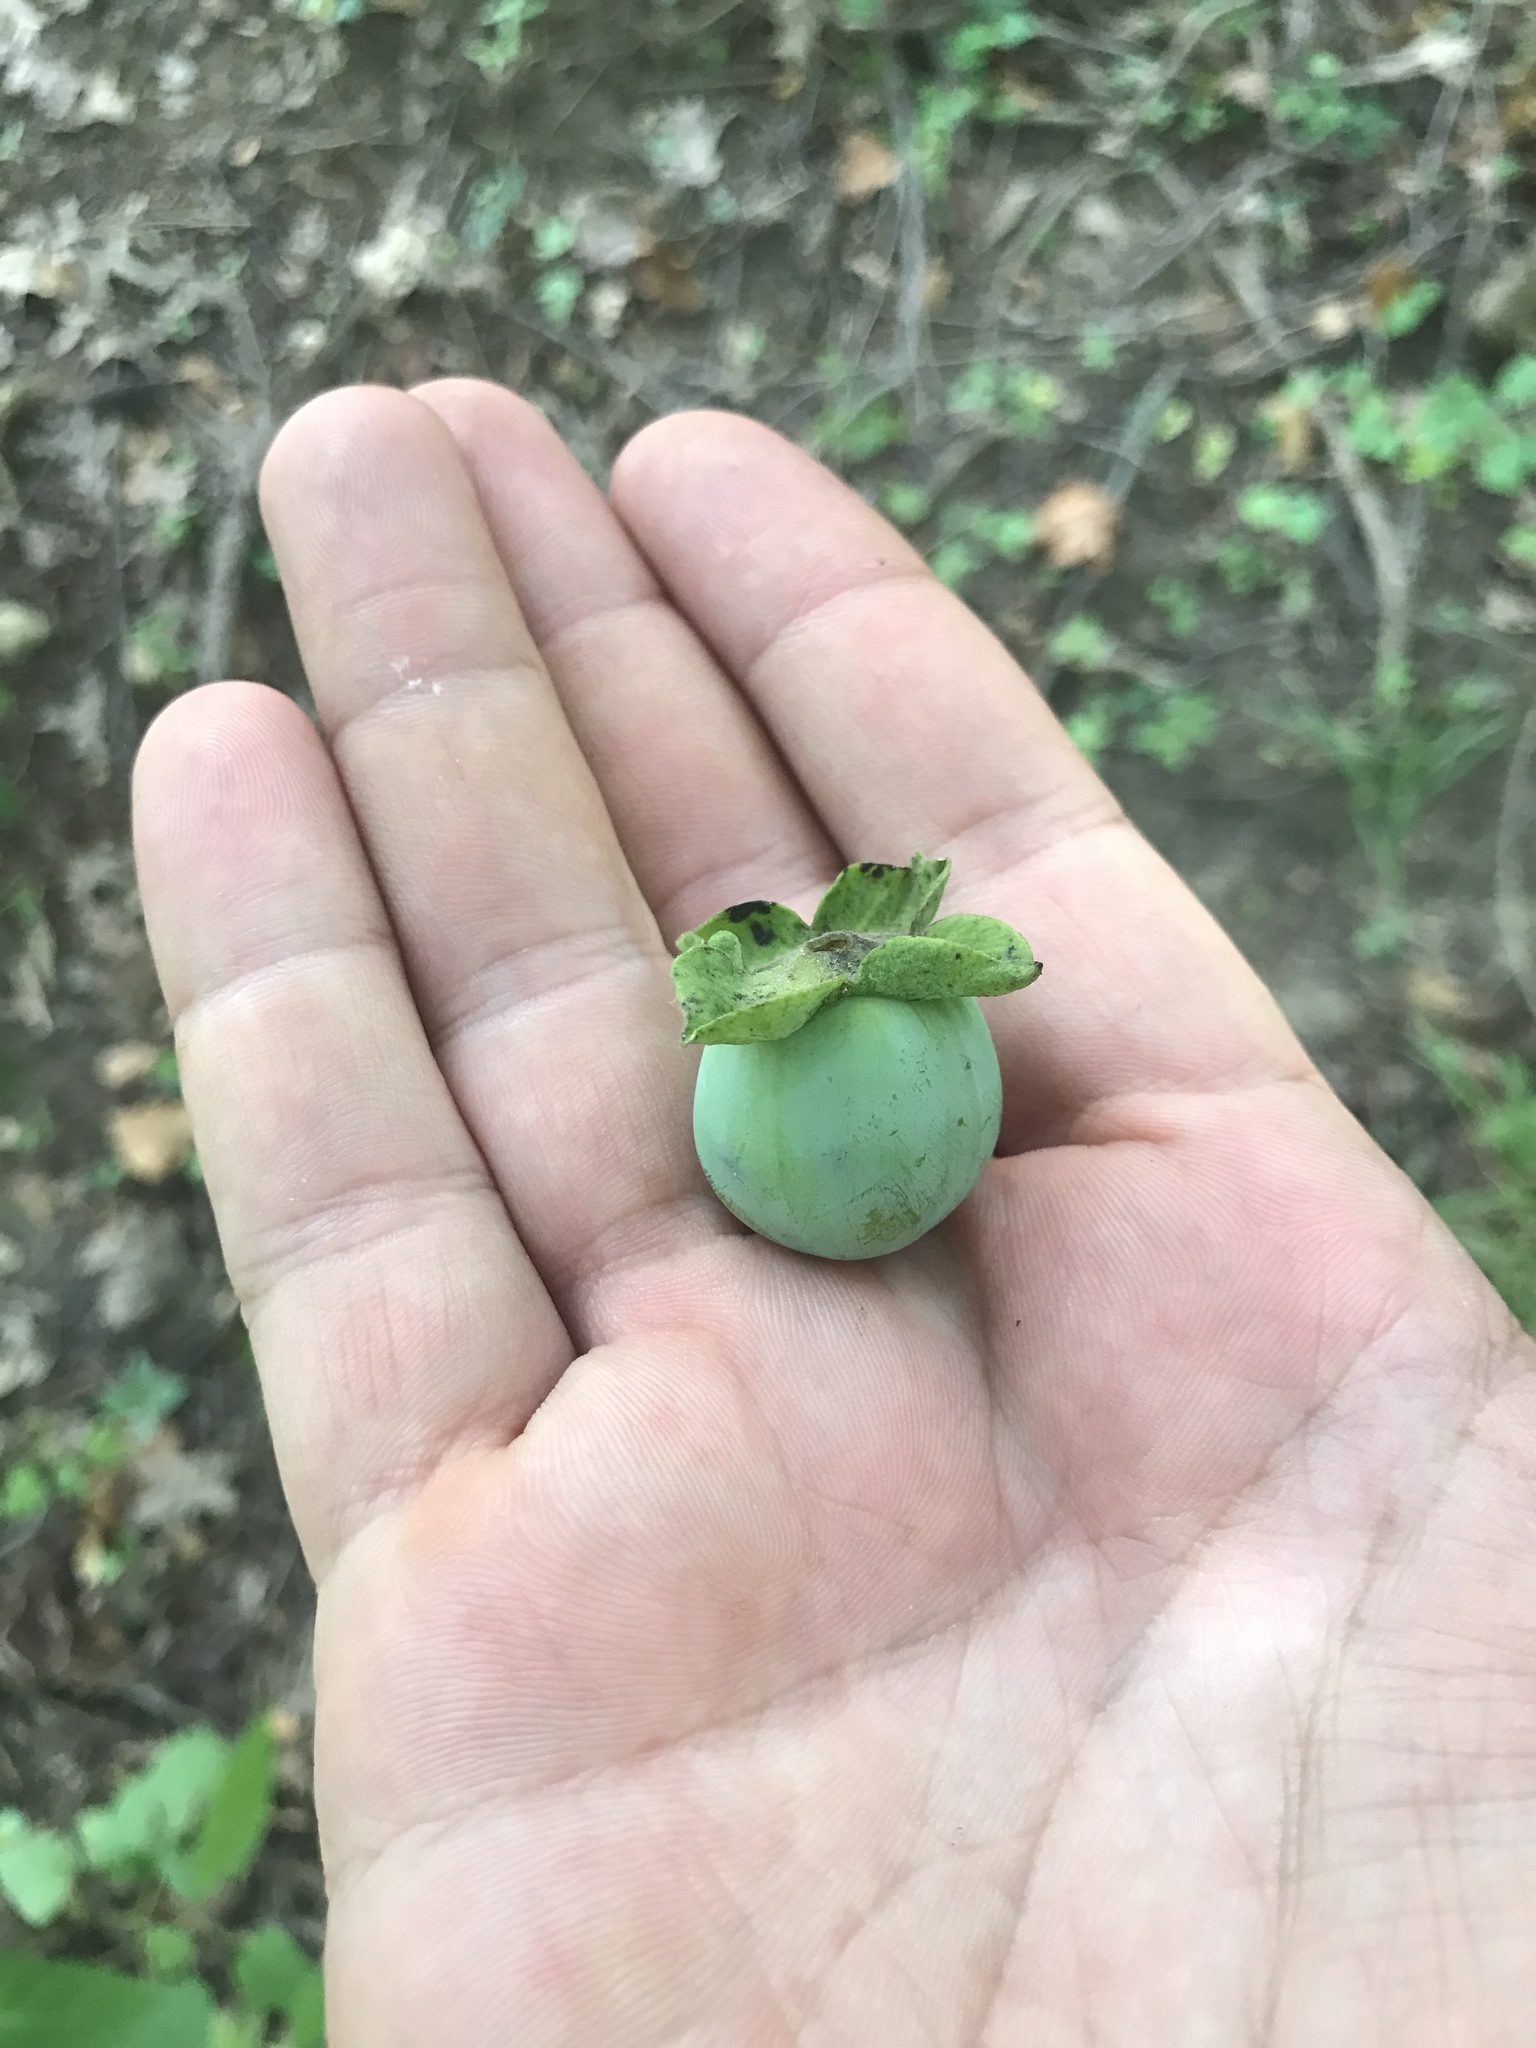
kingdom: Plantae
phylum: Tracheophyta
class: Magnoliopsida
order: Ericales
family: Ebenaceae
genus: Diospyros
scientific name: Diospyros virginiana
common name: Persimmon
